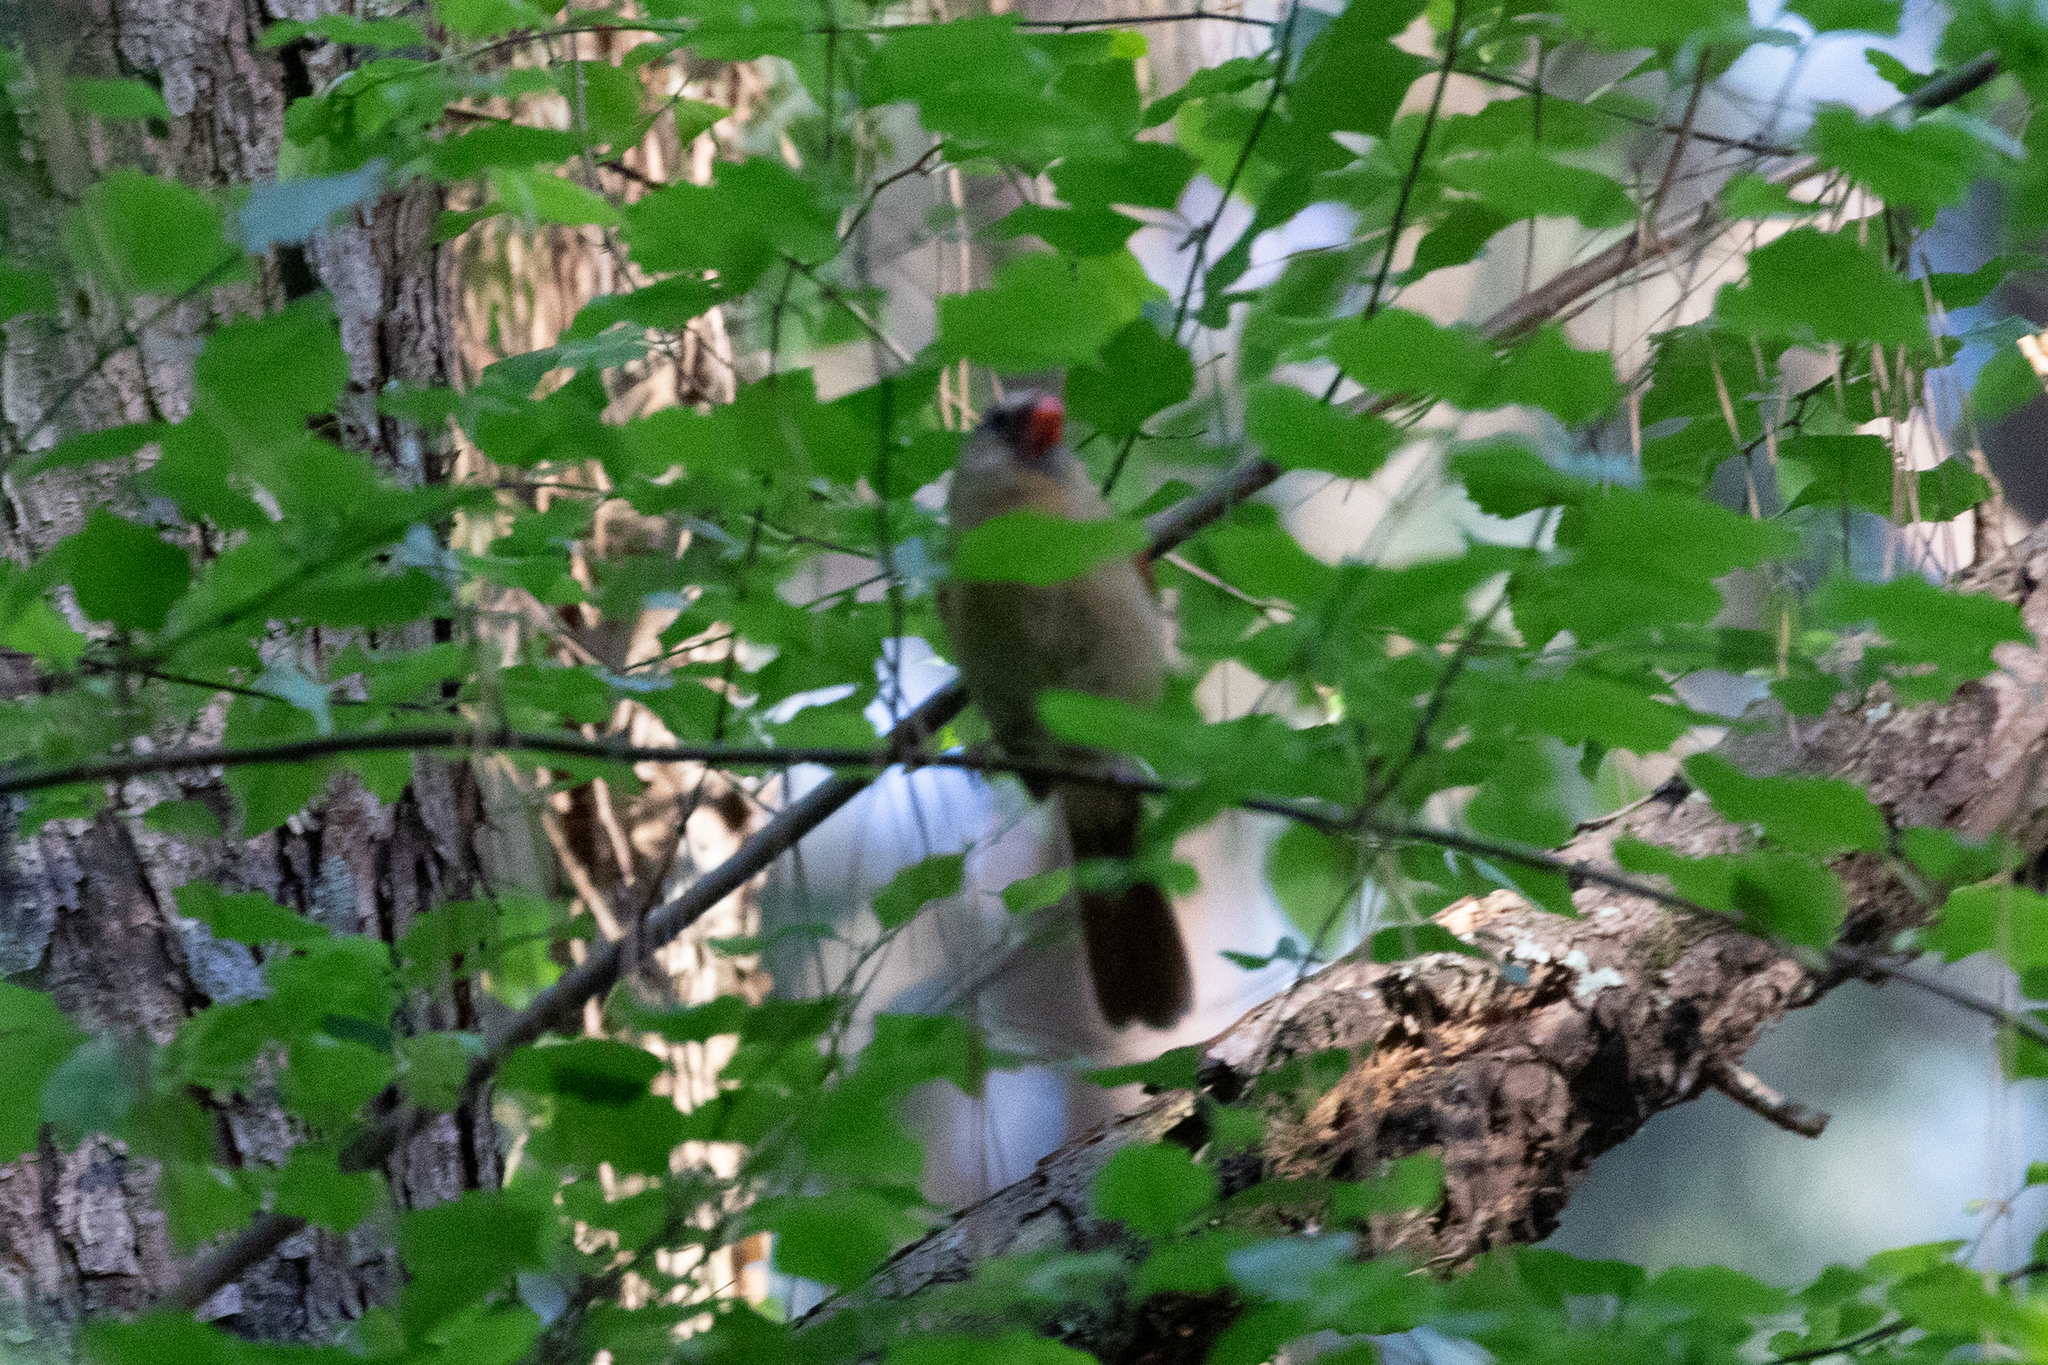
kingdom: Animalia
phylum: Chordata
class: Aves
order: Passeriformes
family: Cardinalidae
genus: Cardinalis
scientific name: Cardinalis cardinalis
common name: Northern cardinal
